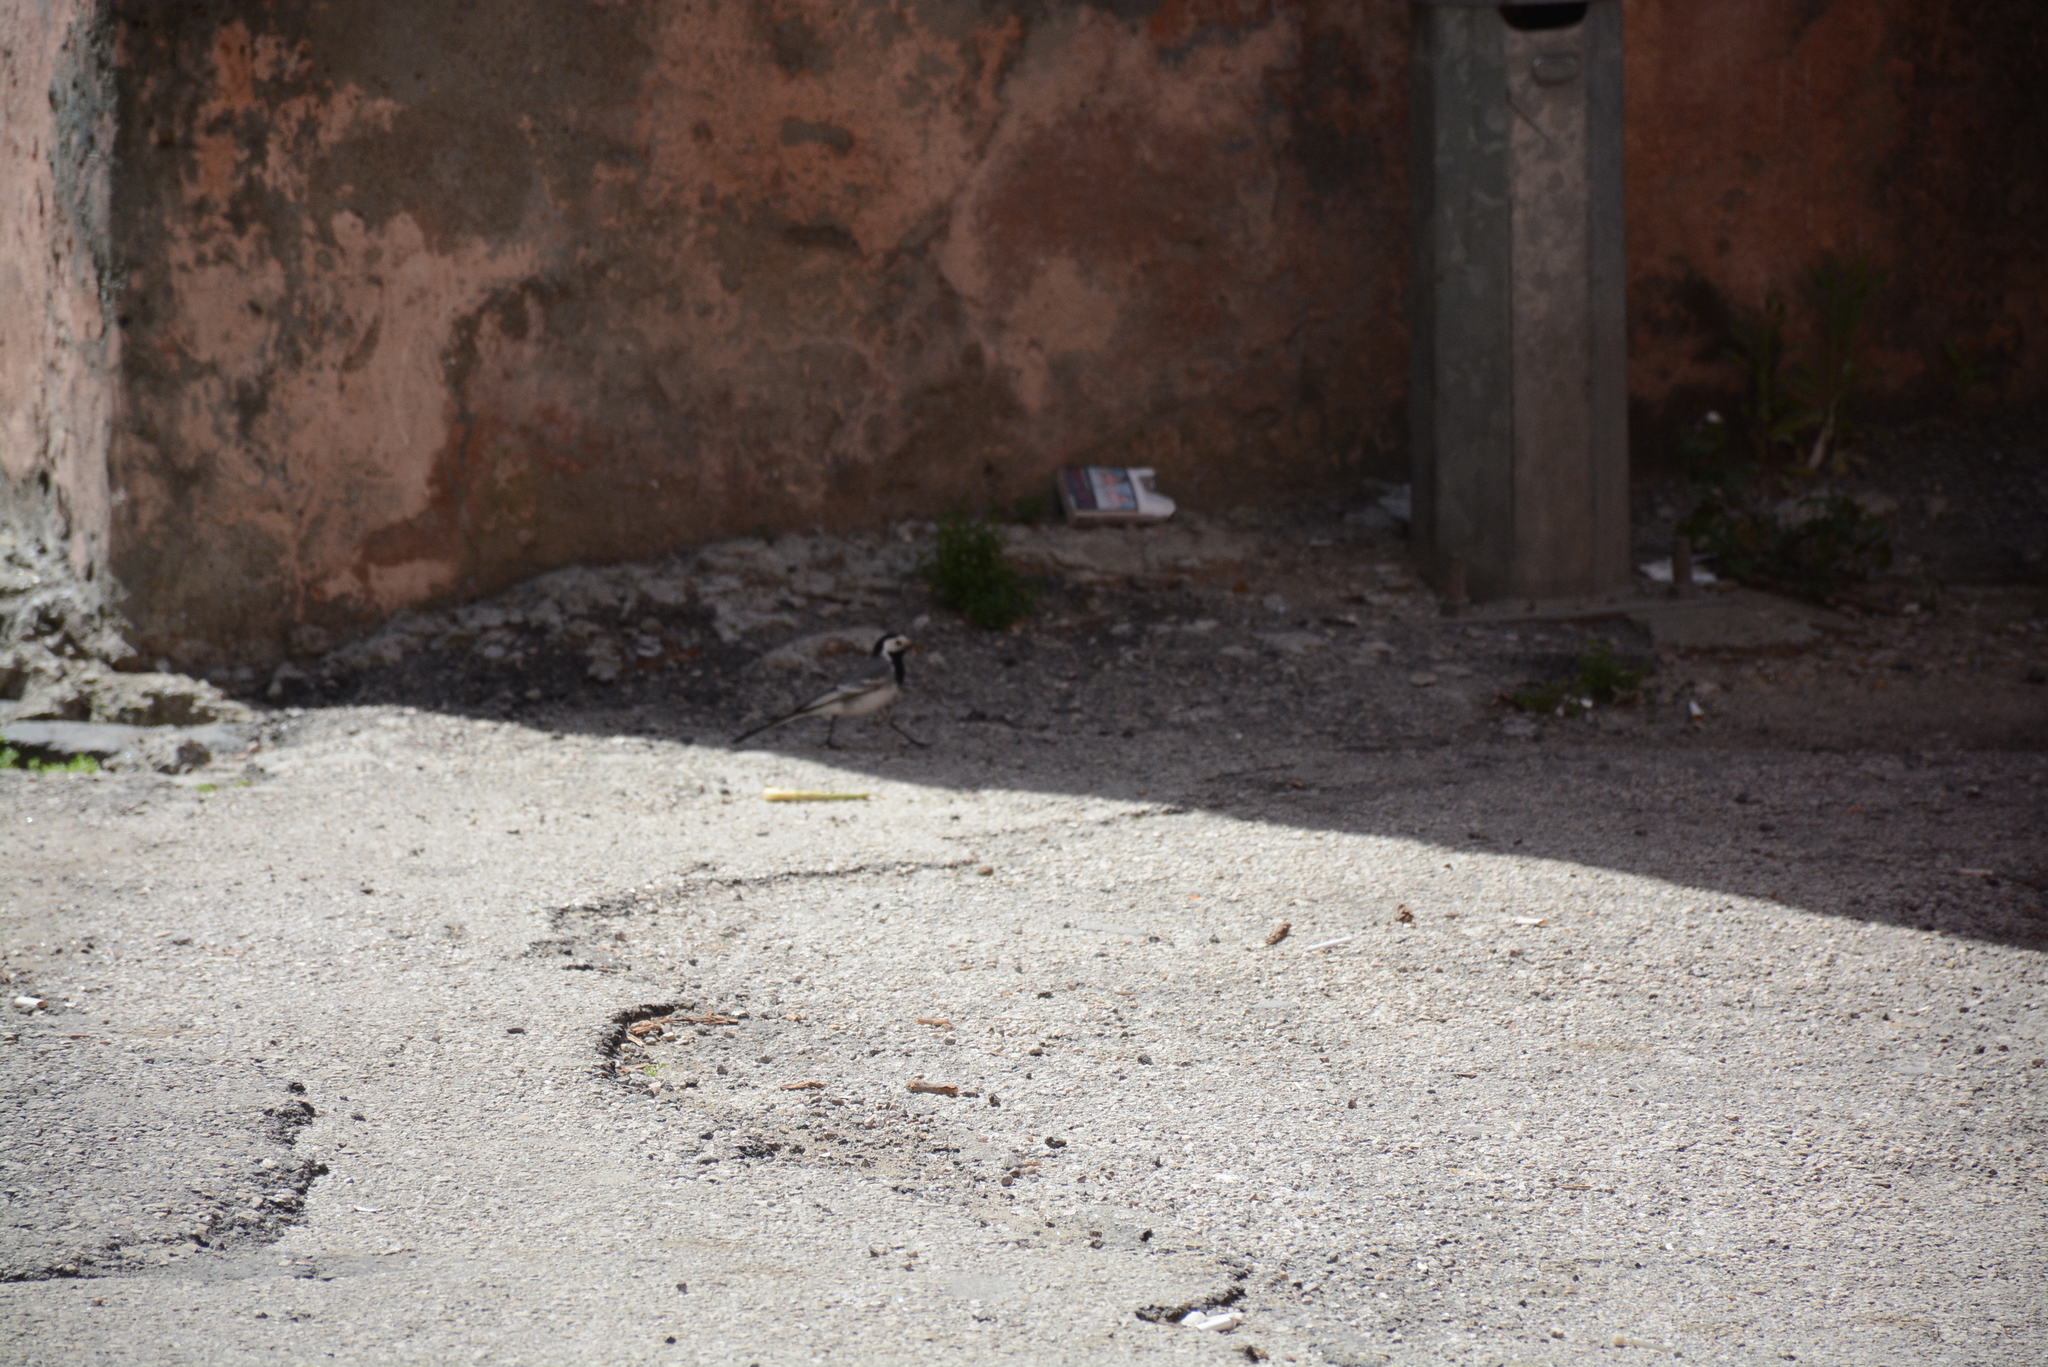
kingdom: Animalia
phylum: Chordata
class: Aves
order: Passeriformes
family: Motacillidae
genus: Motacilla
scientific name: Motacilla alba
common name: White wagtail
